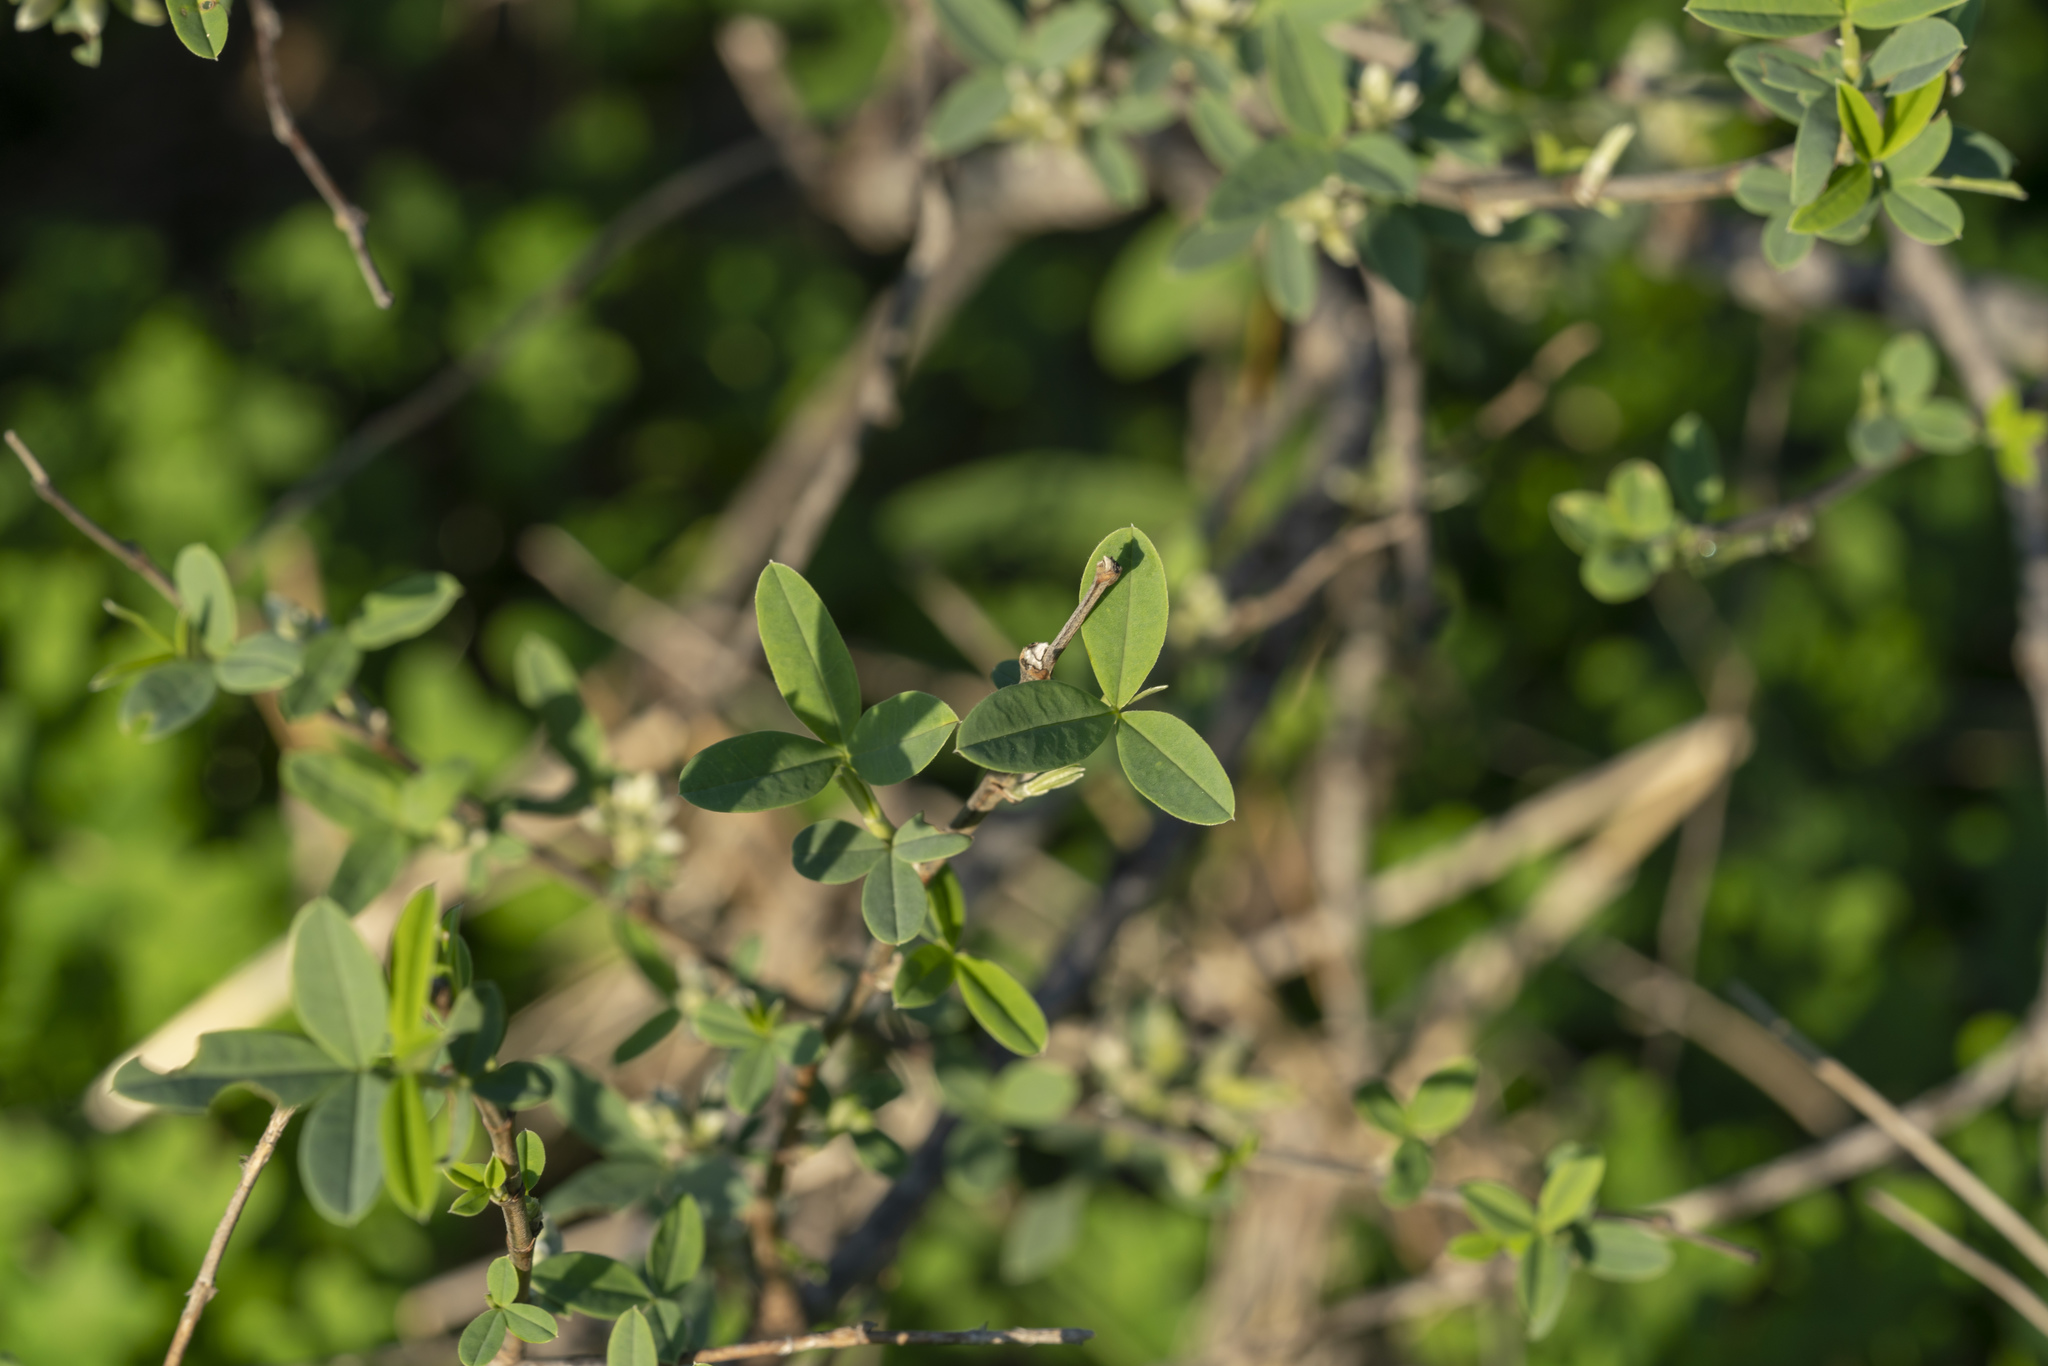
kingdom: Plantae
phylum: Tracheophyta
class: Magnoliopsida
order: Fabales
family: Fabaceae
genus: Anagyris
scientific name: Anagyris foetida
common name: Stinking bean trefoil
